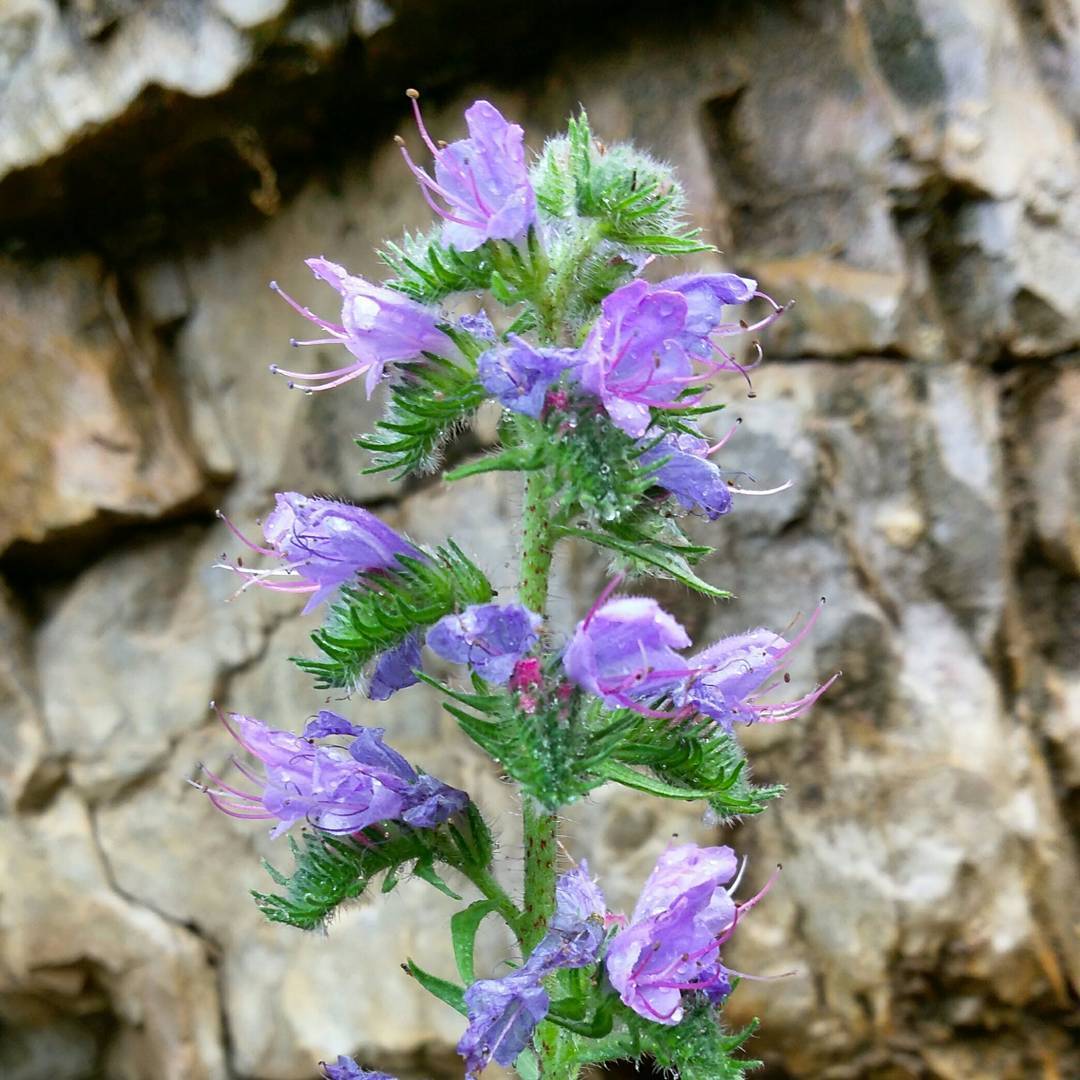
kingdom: Plantae
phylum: Tracheophyta
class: Magnoliopsida
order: Boraginales
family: Boraginaceae
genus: Echium
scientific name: Echium vulgare
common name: Common viper's bugloss
